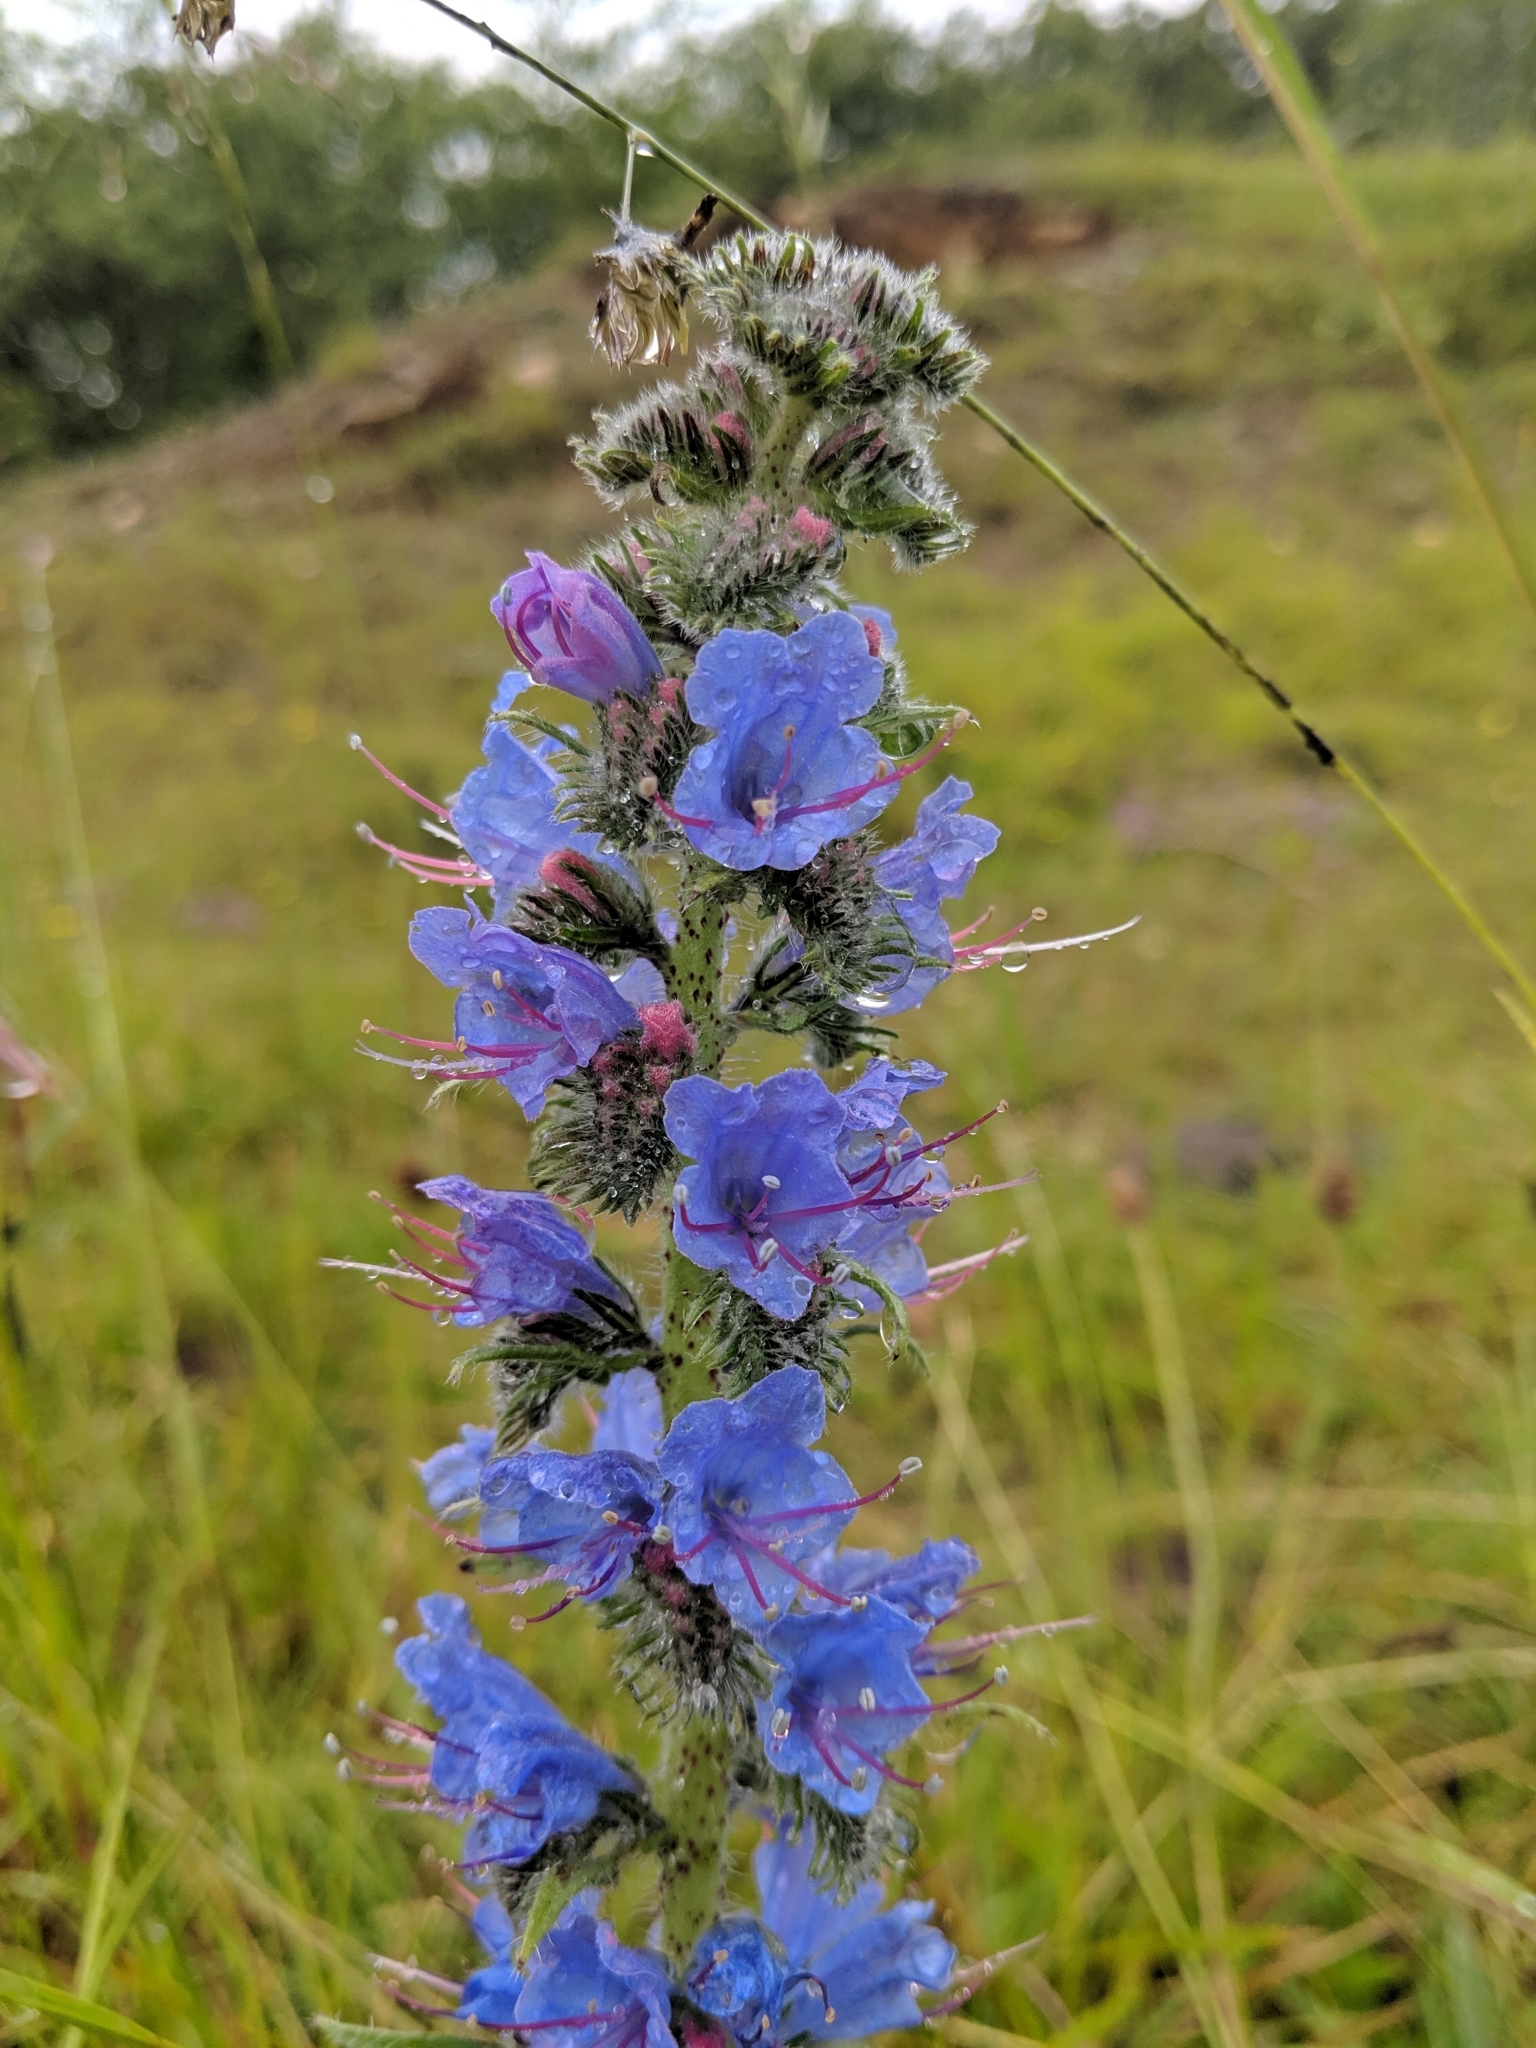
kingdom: Plantae
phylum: Tracheophyta
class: Magnoliopsida
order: Boraginales
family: Boraginaceae
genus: Echium
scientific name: Echium vulgare
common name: Common viper's bugloss
